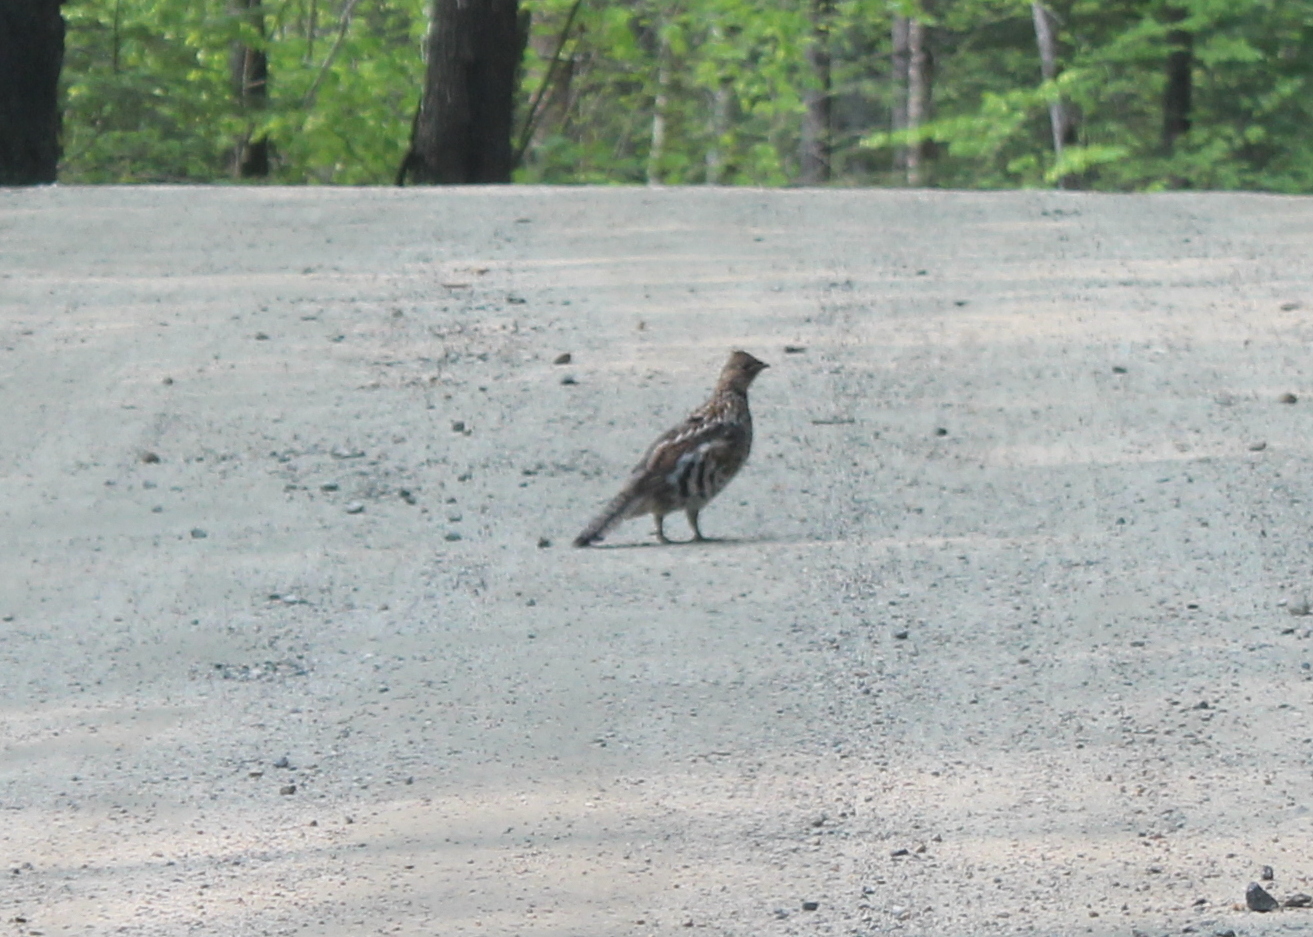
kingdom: Animalia
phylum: Chordata
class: Aves
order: Galliformes
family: Phasianidae
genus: Bonasa
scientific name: Bonasa umbellus
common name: Ruffed grouse
